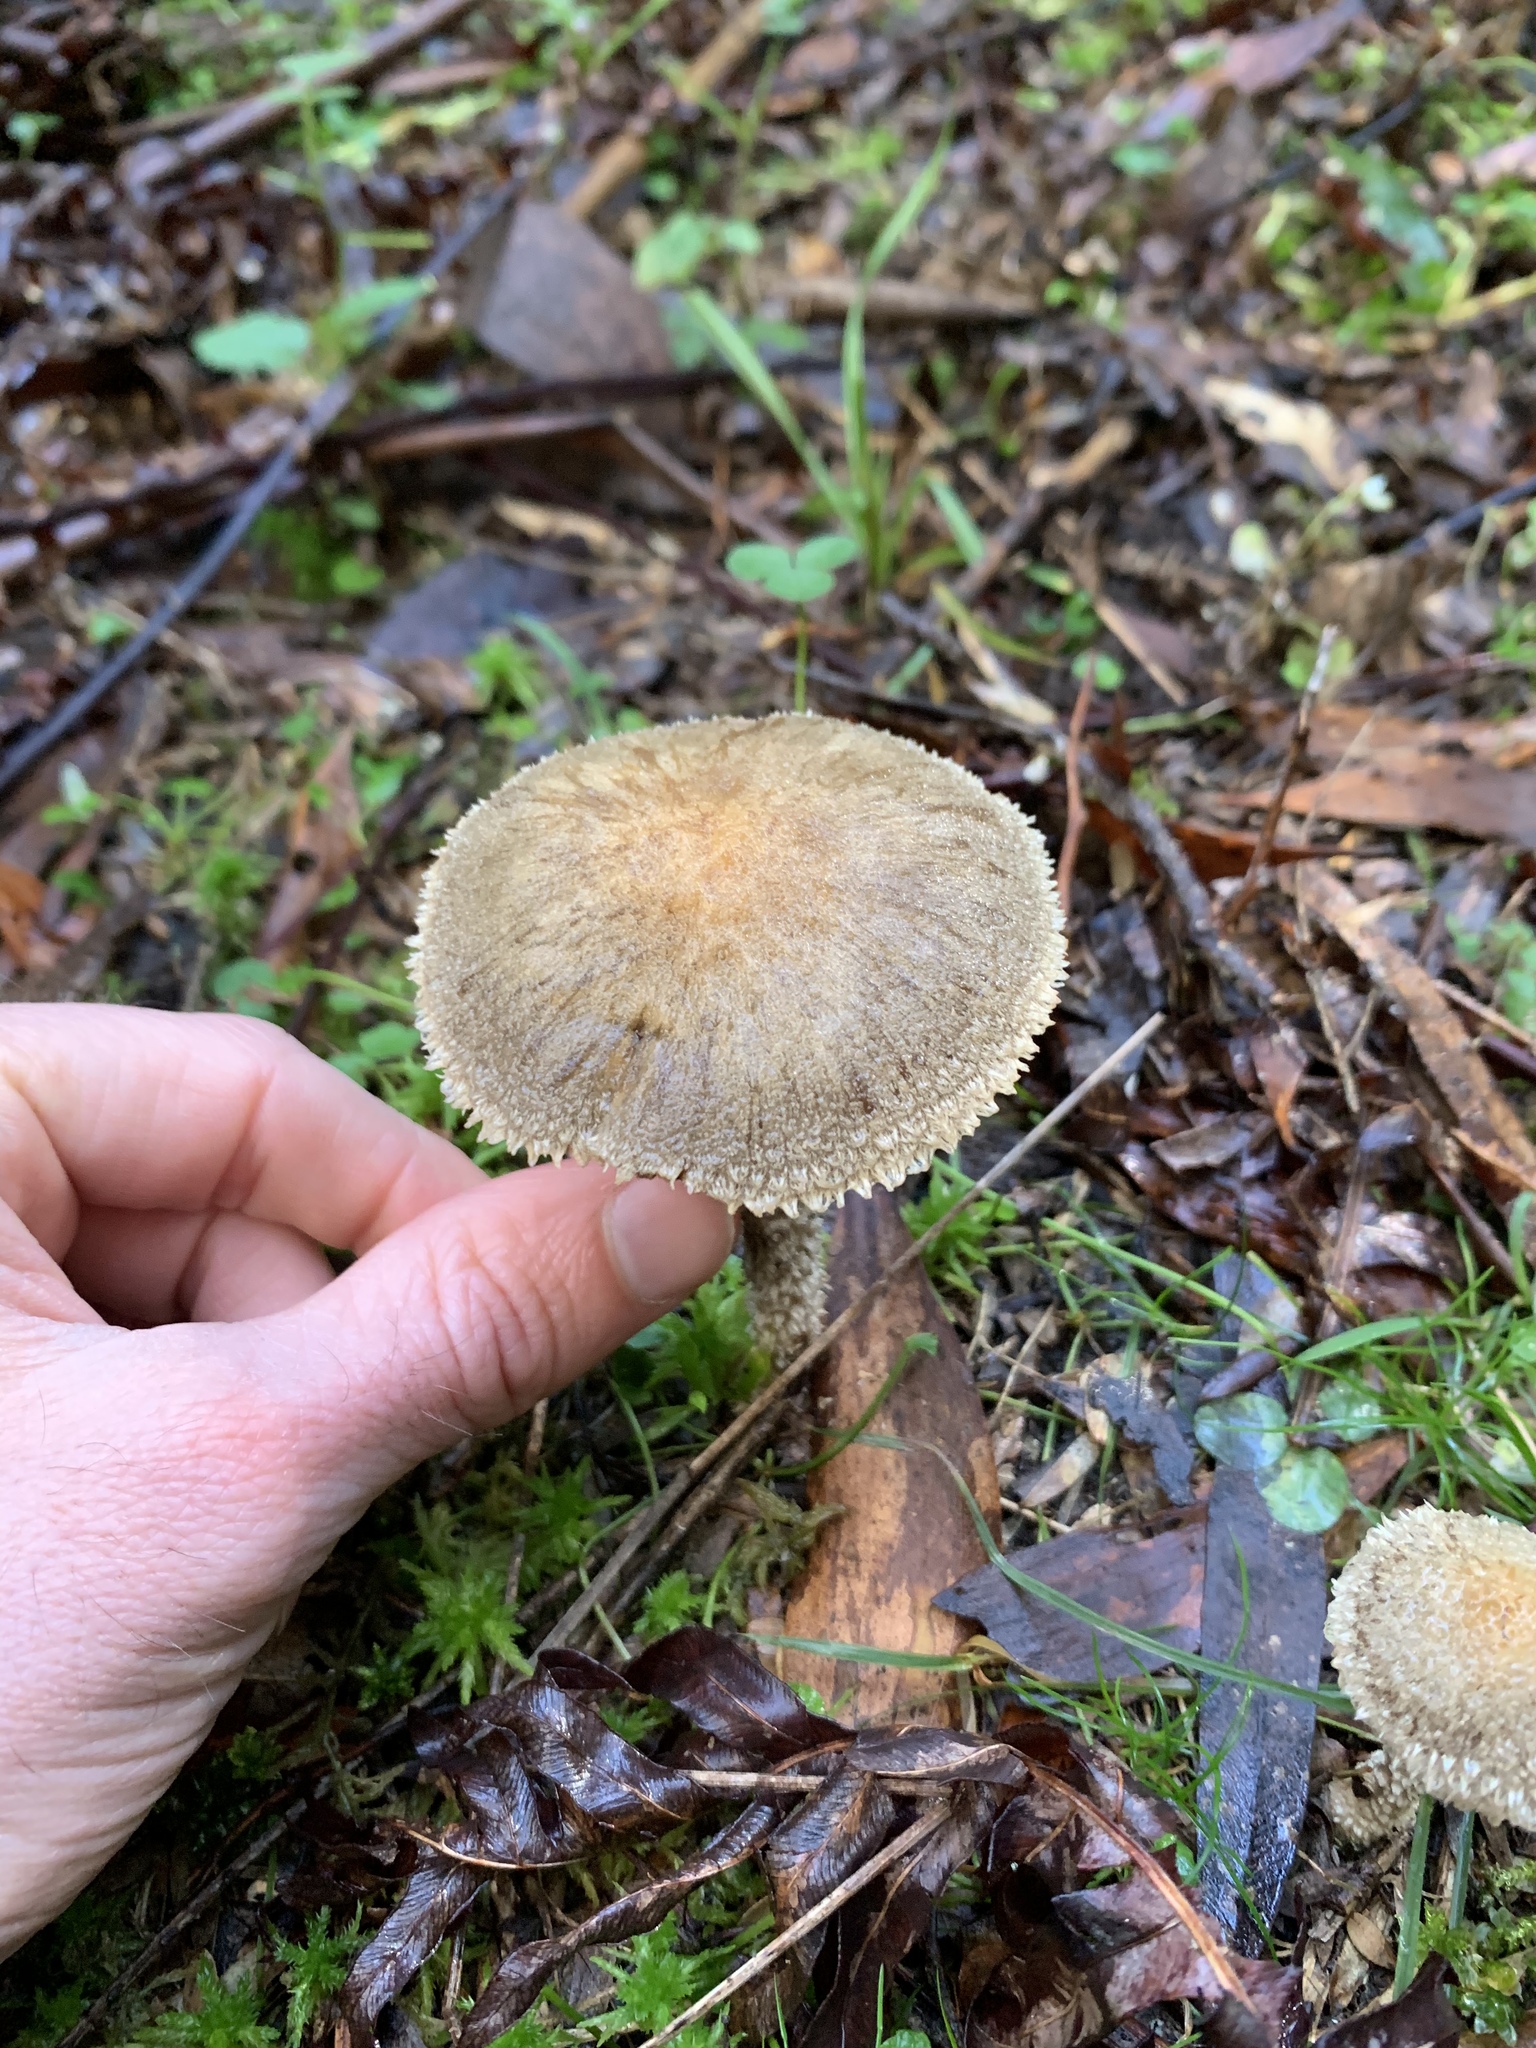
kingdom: Fungi
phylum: Basidiomycota
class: Agaricomycetes
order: Agaricales
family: Psathyrellaceae
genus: Psathyrella
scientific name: Psathyrella asperospora
